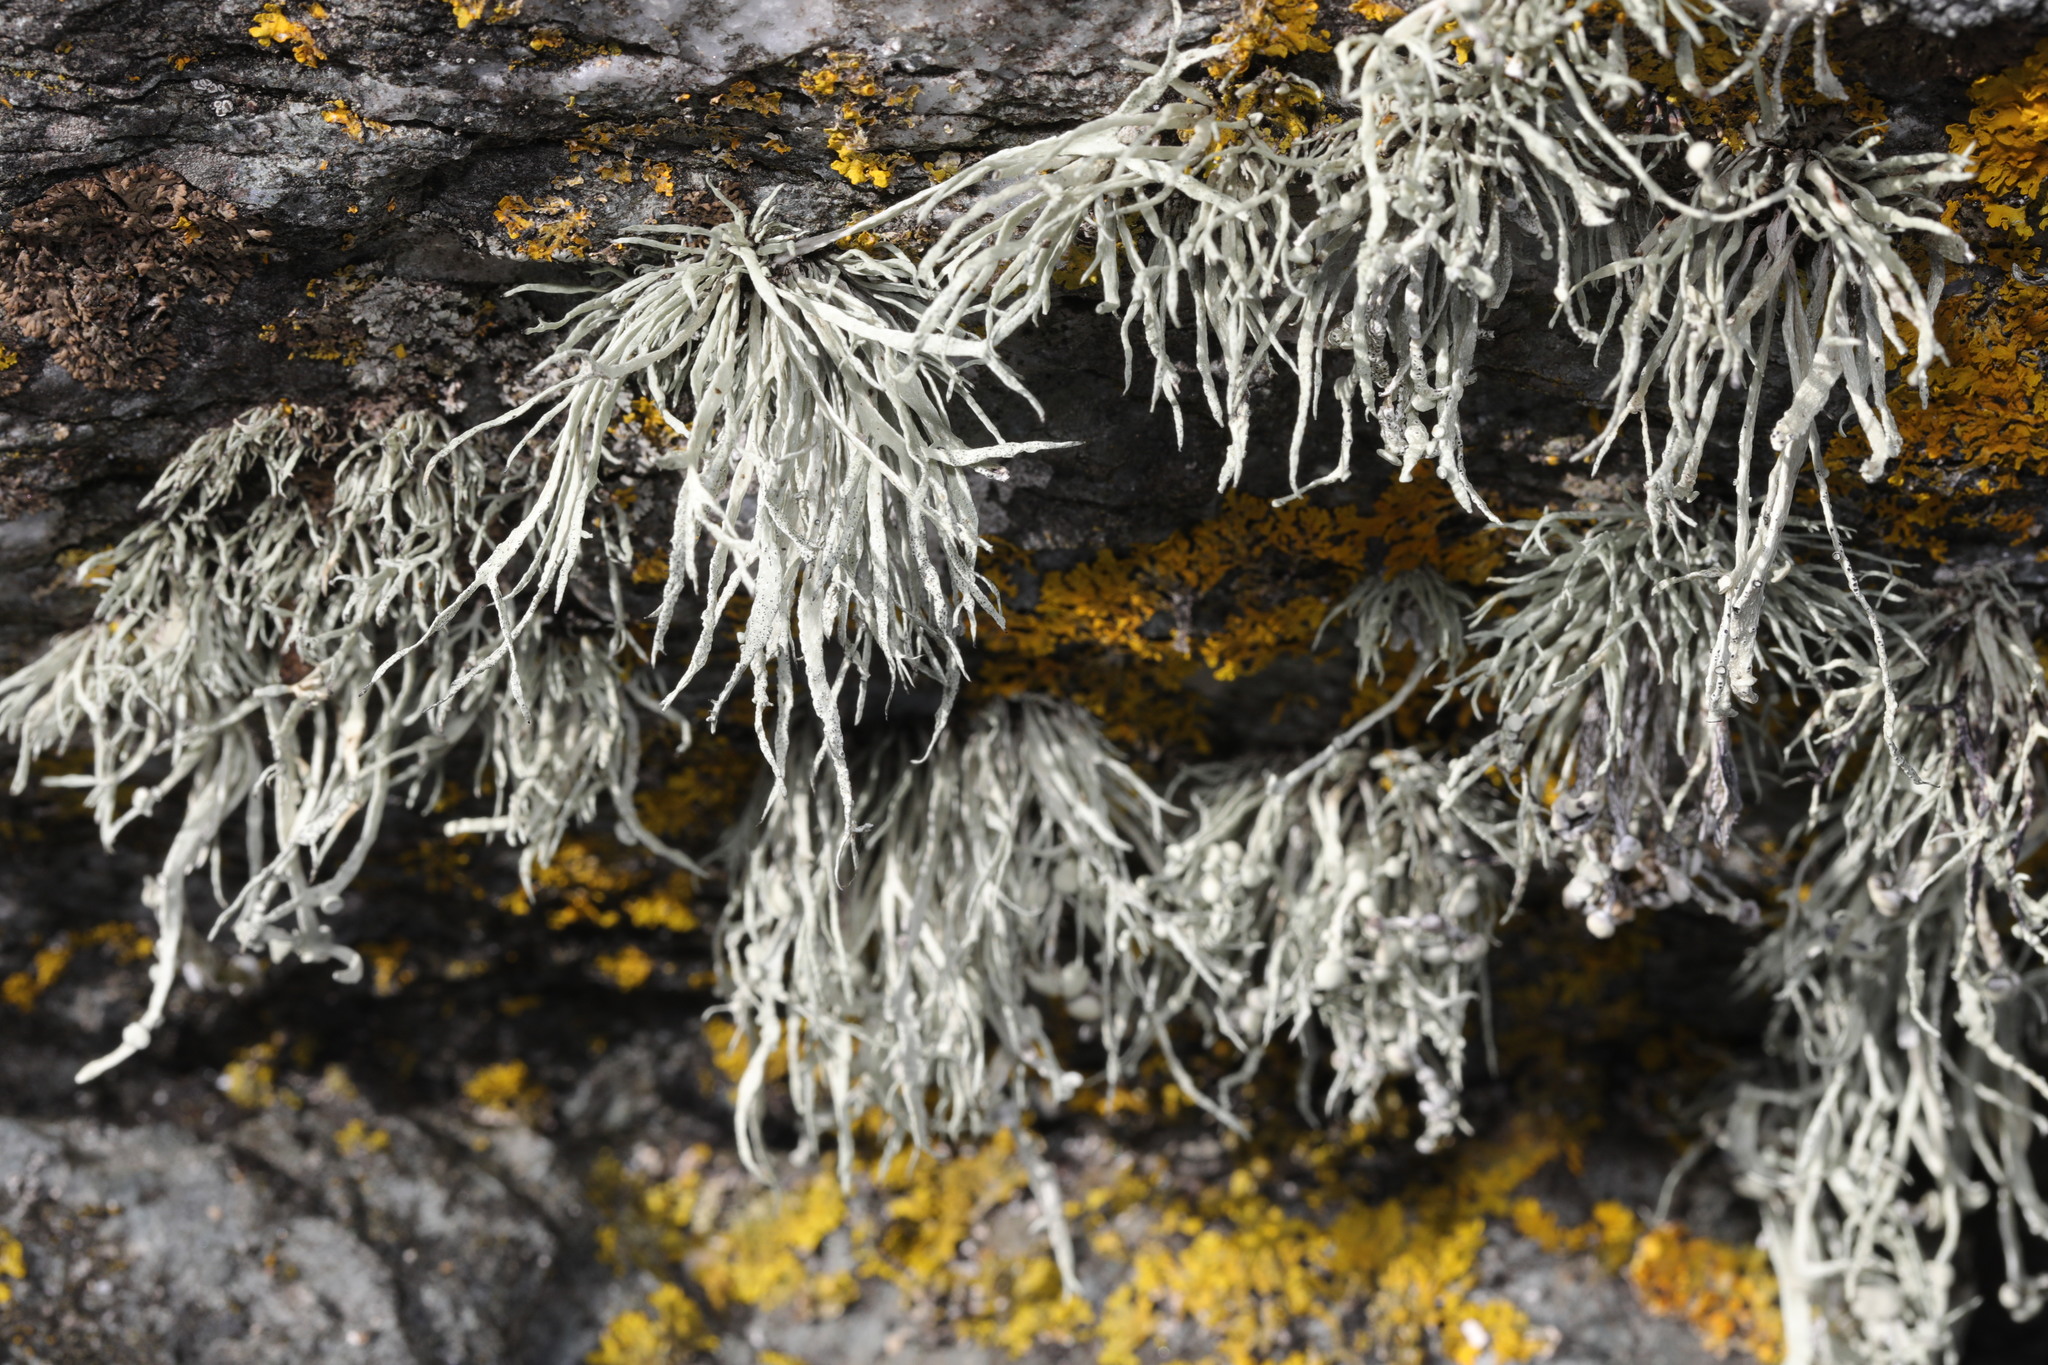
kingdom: Fungi
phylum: Ascomycota
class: Lecanoromycetes
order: Lecanorales
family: Ramalinaceae
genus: Ramalina
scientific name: Ramalina siliquosa
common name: Sea ivory
